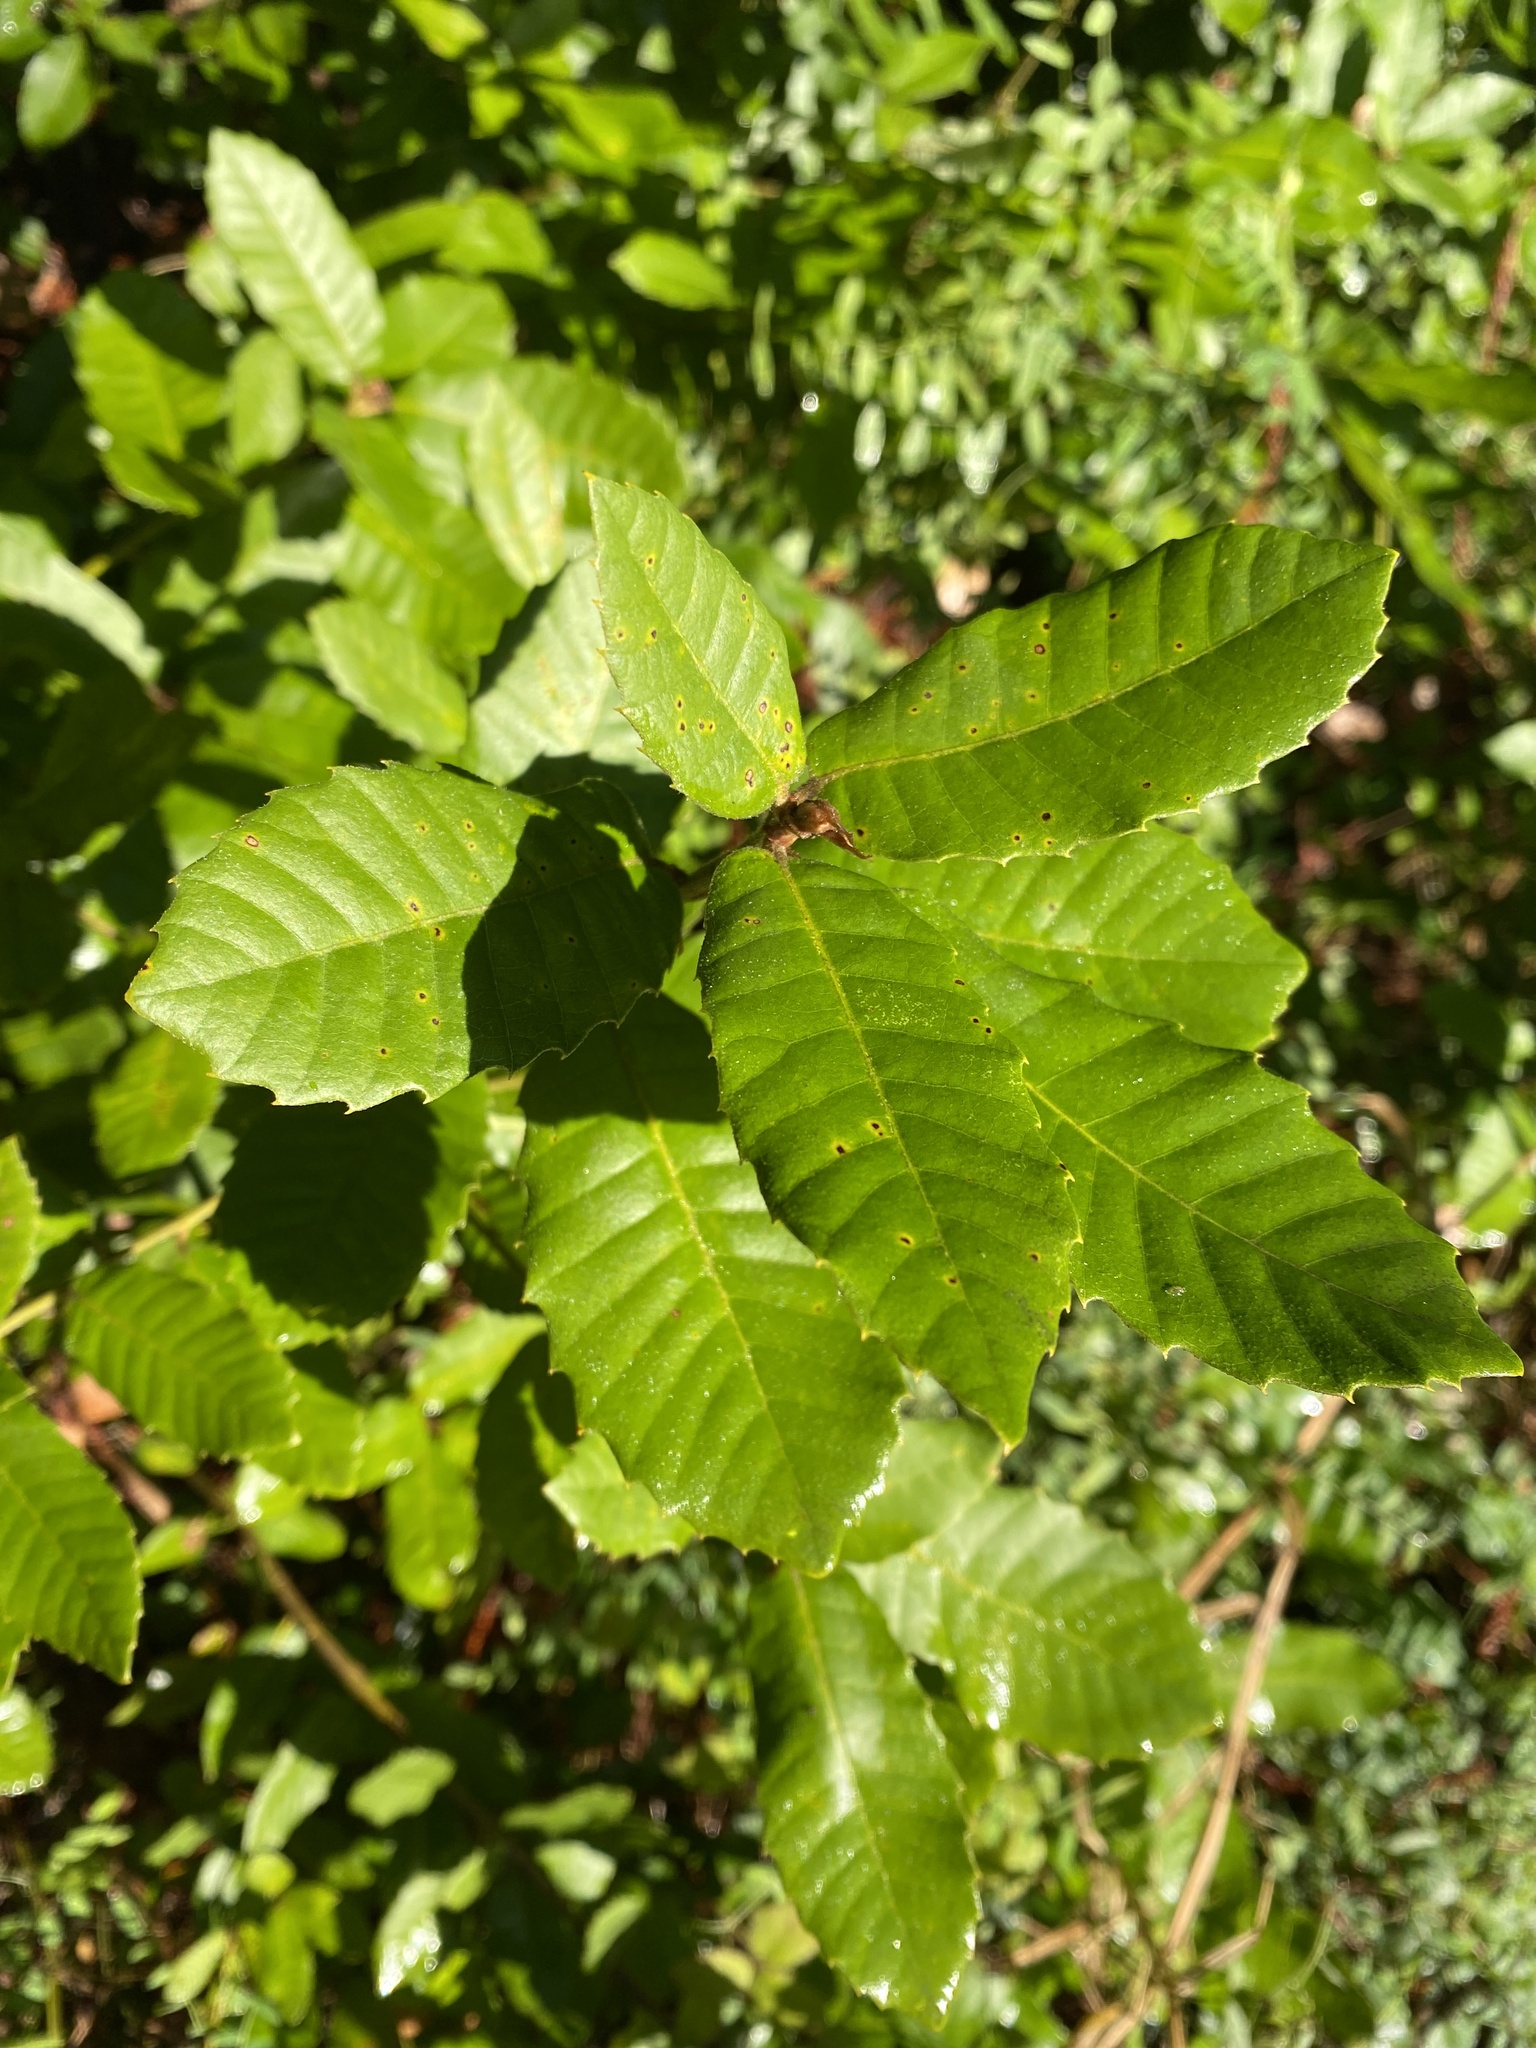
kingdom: Plantae
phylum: Tracheophyta
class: Magnoliopsida
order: Fagales
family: Fagaceae
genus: Notholithocarpus
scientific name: Notholithocarpus densiflorus
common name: Tan bark oak
